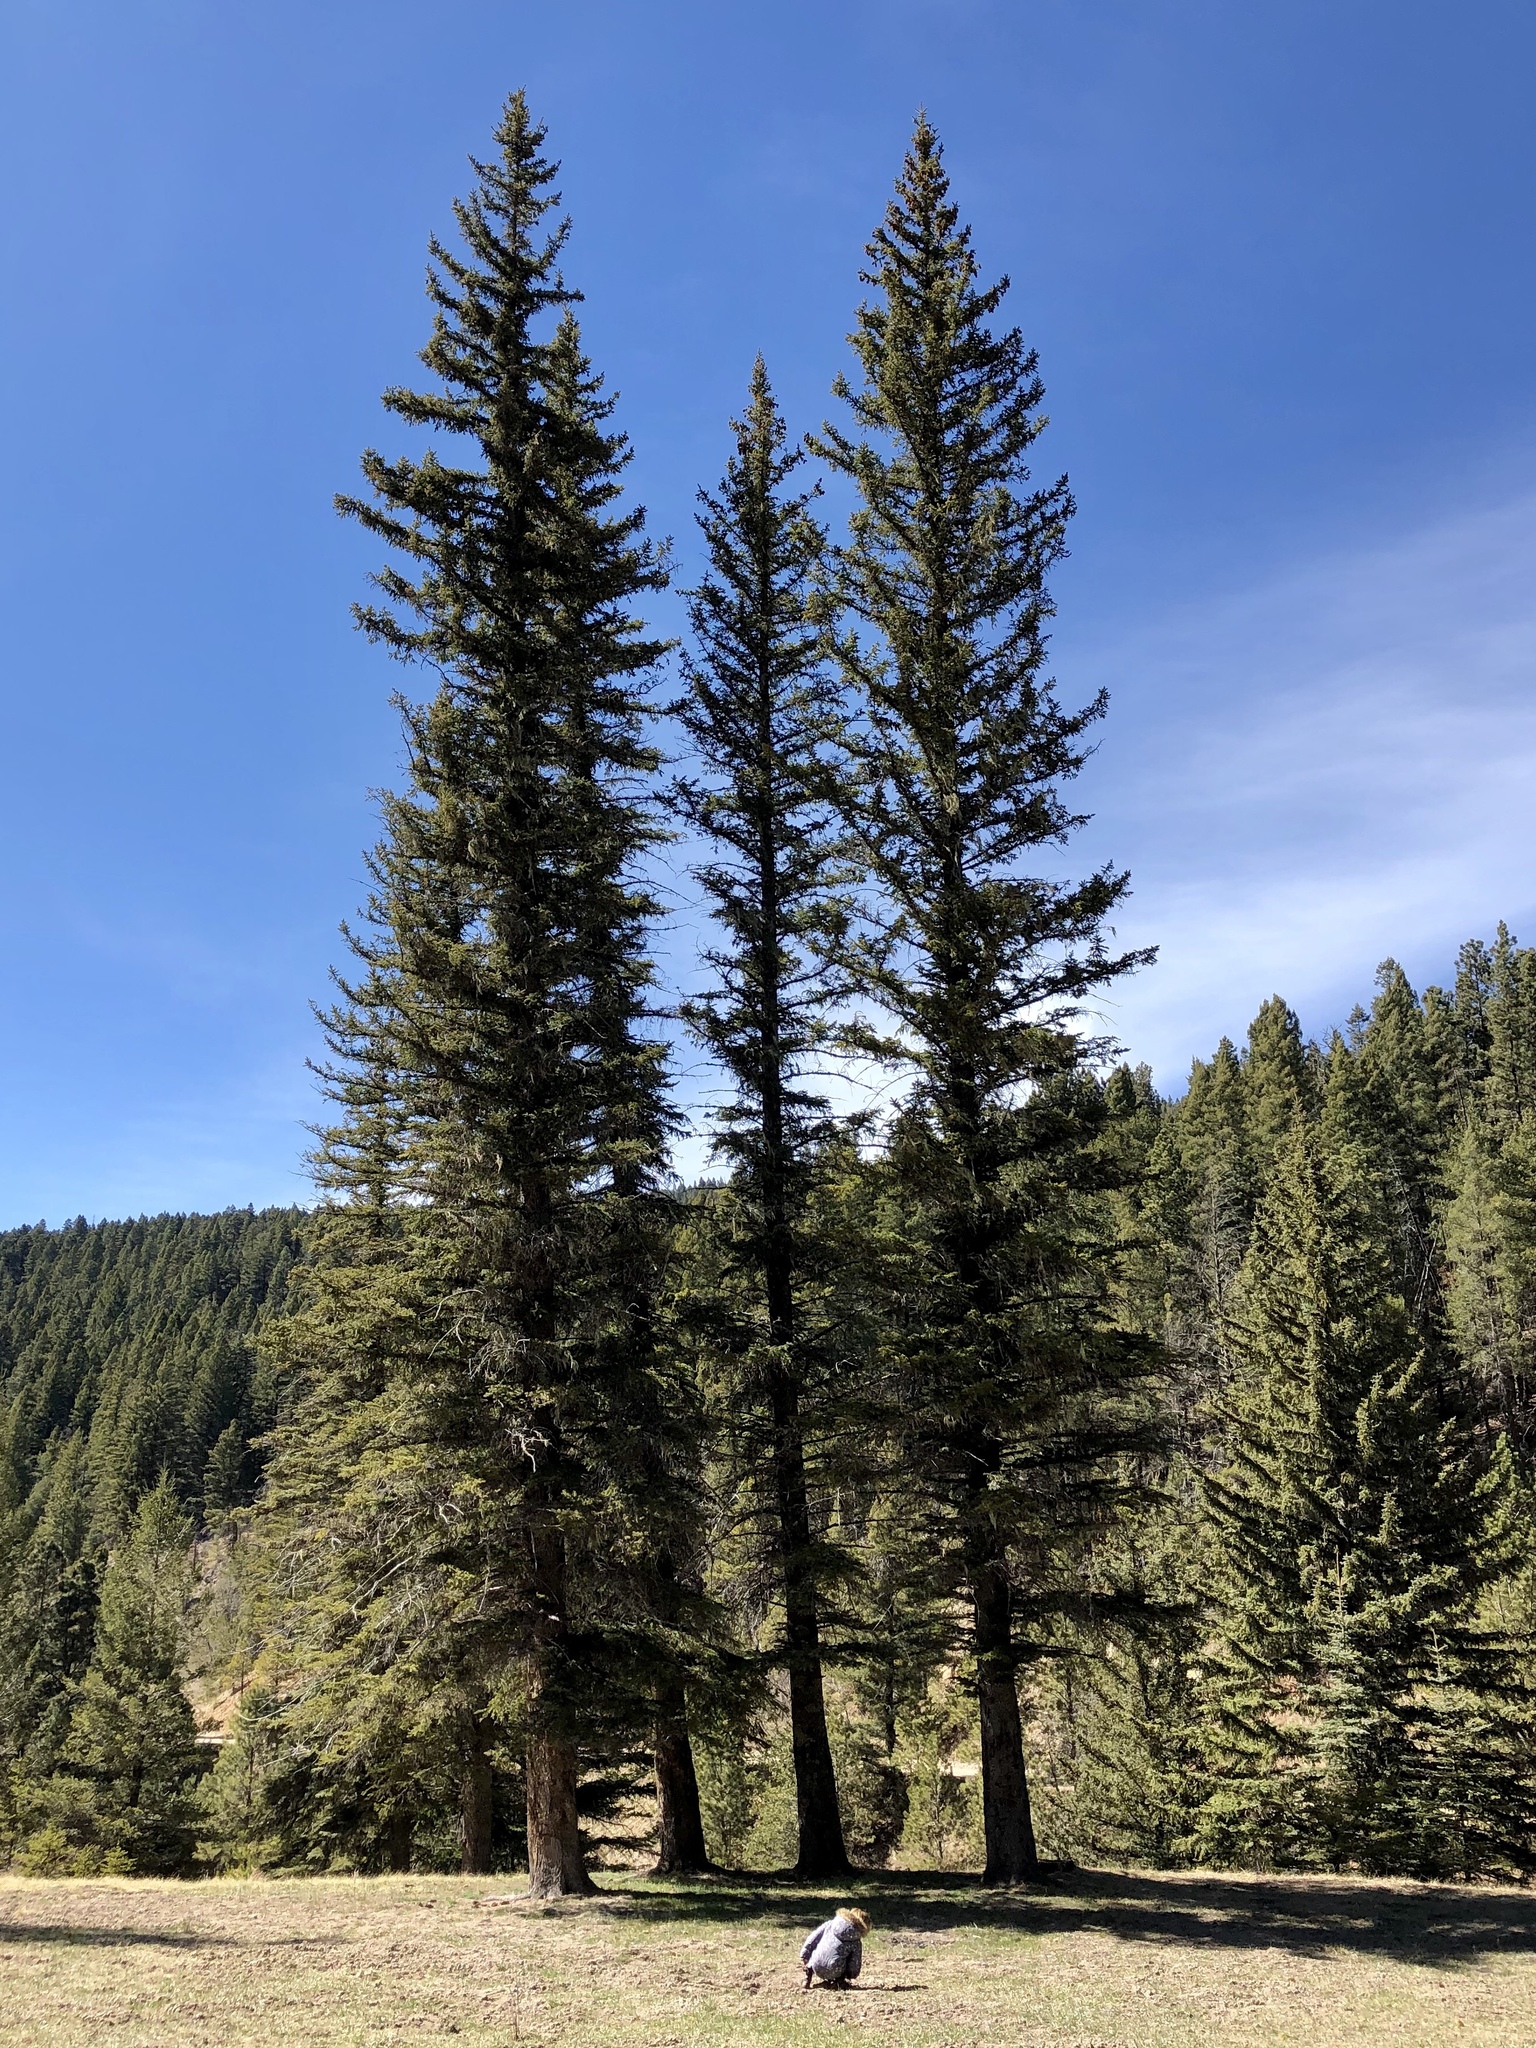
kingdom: Plantae
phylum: Tracheophyta
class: Pinopsida
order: Pinales
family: Pinaceae
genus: Picea
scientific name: Picea engelmannii
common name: Engelmann spruce
